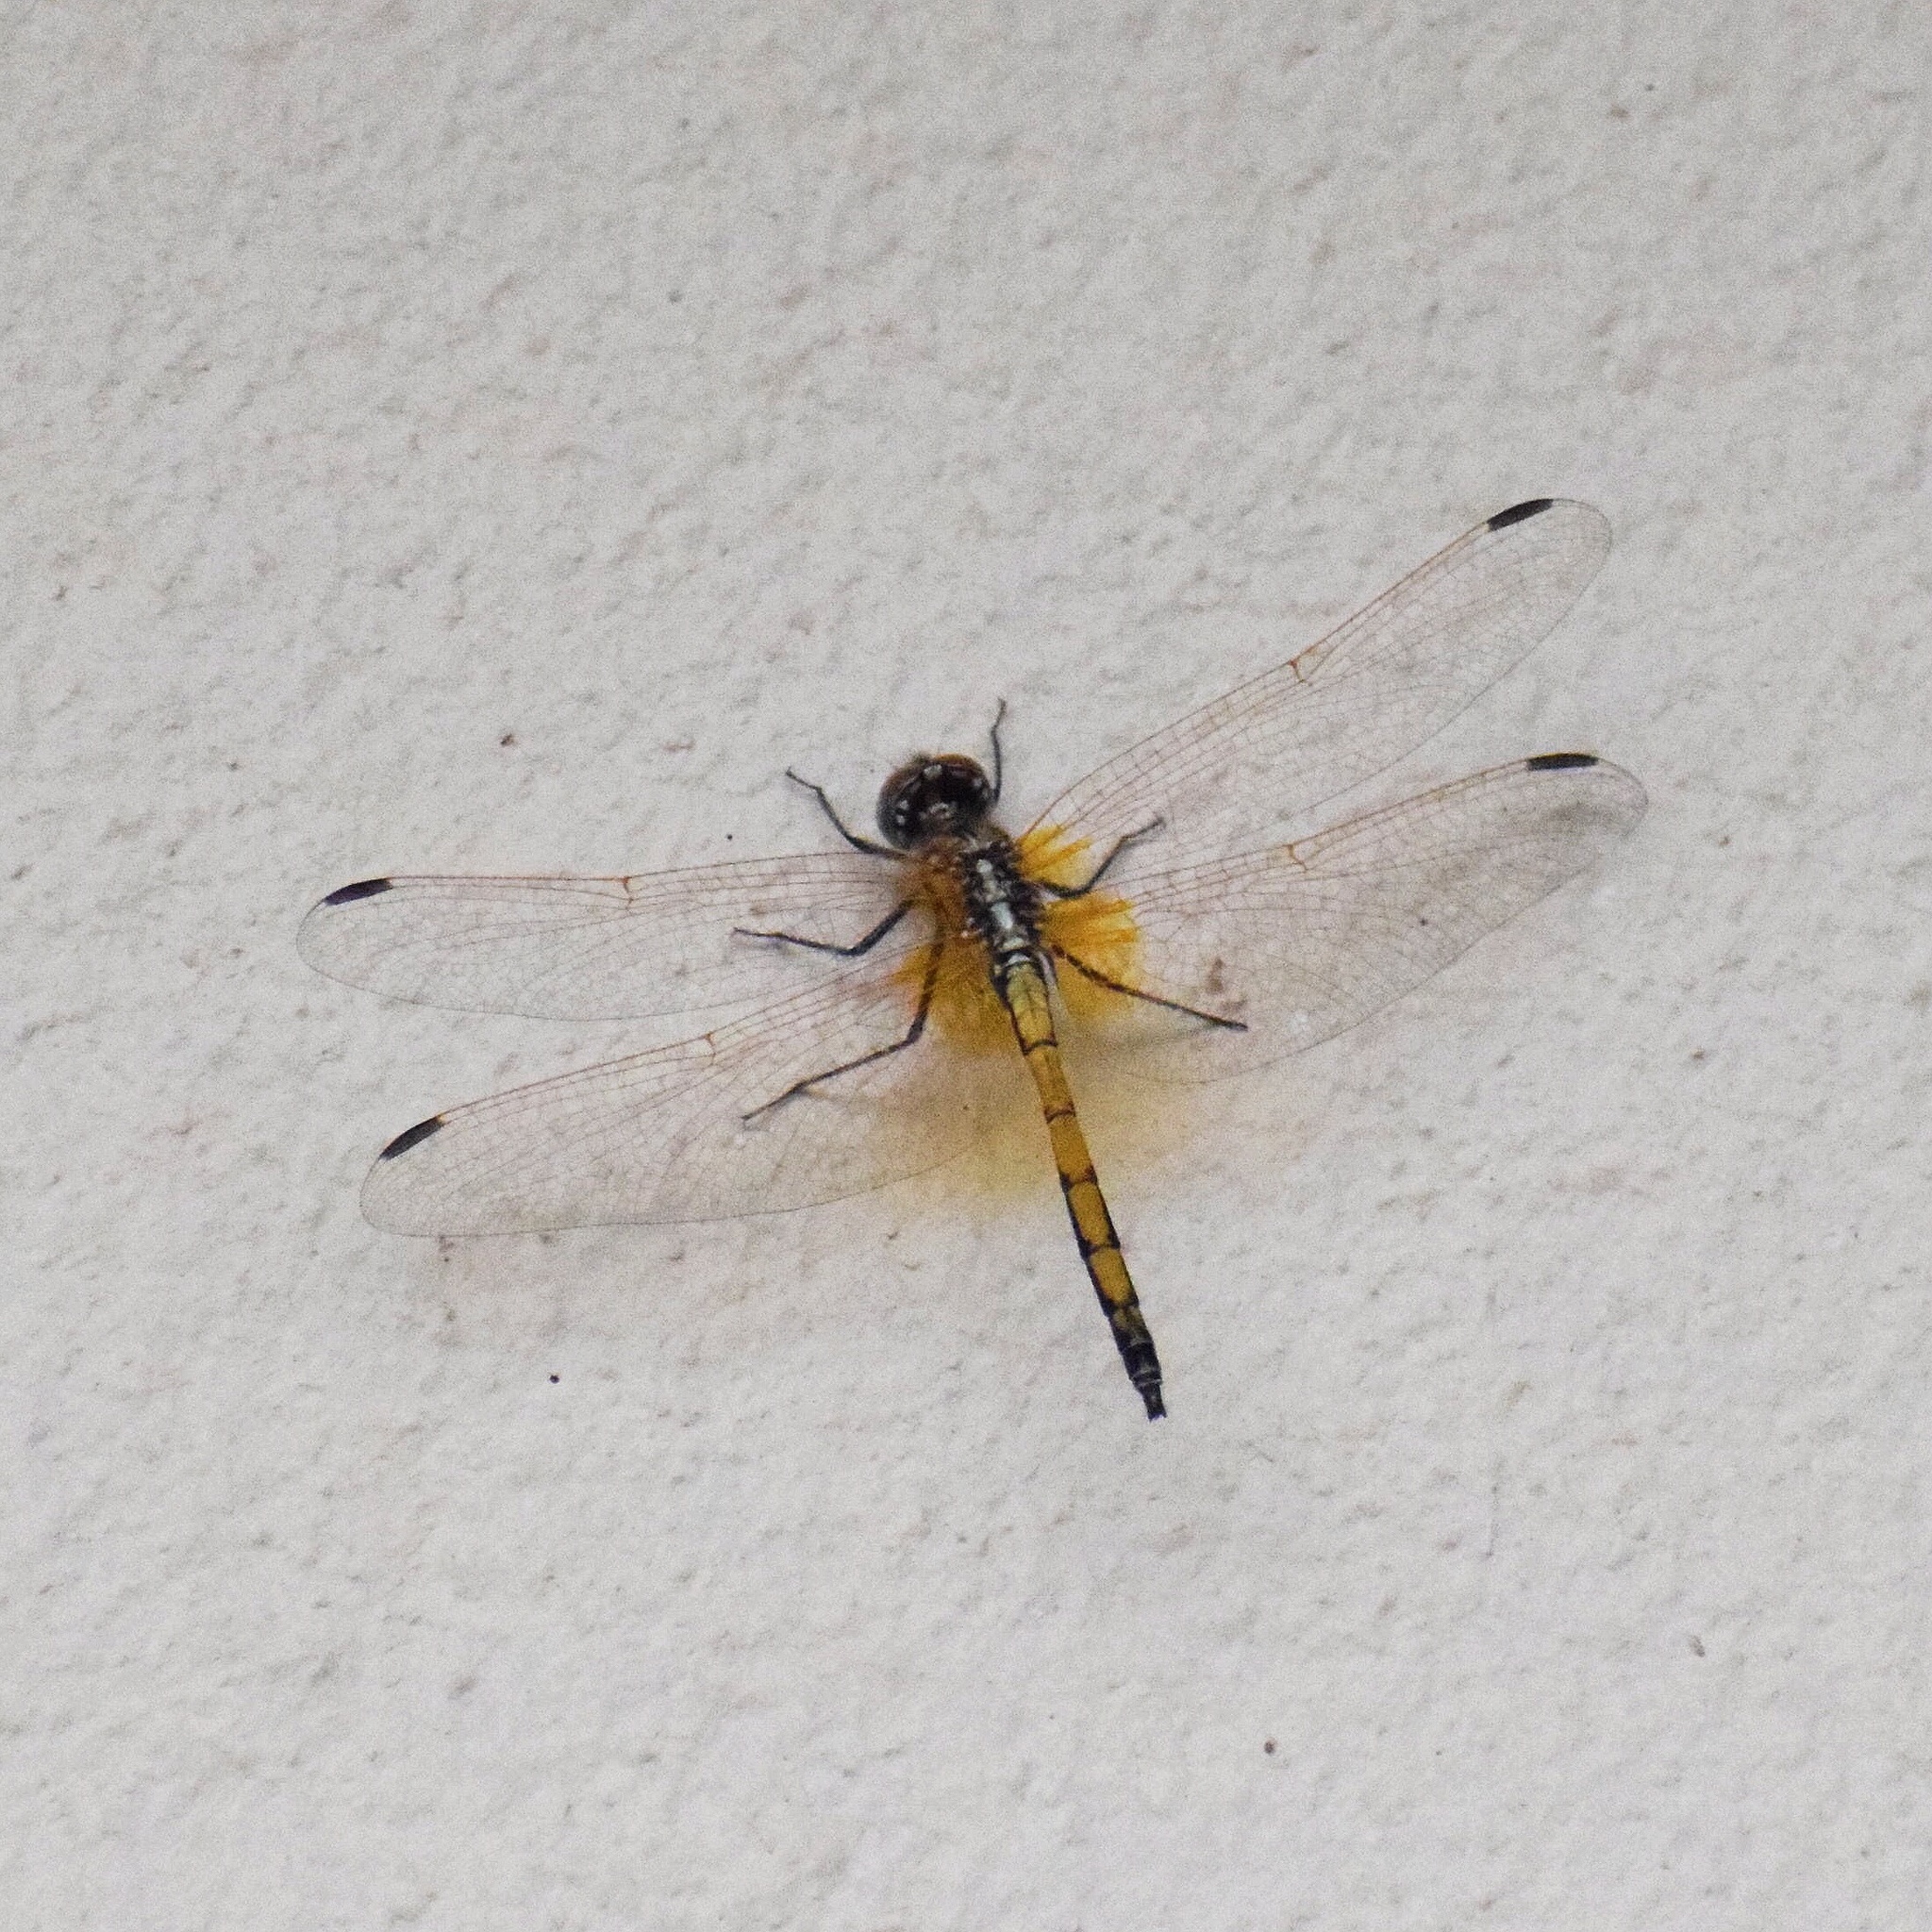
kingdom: Animalia
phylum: Arthropoda
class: Insecta
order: Odonata
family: Libellulidae
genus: Trithemis
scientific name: Trithemis arteriosa
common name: Red-veined dropwing
